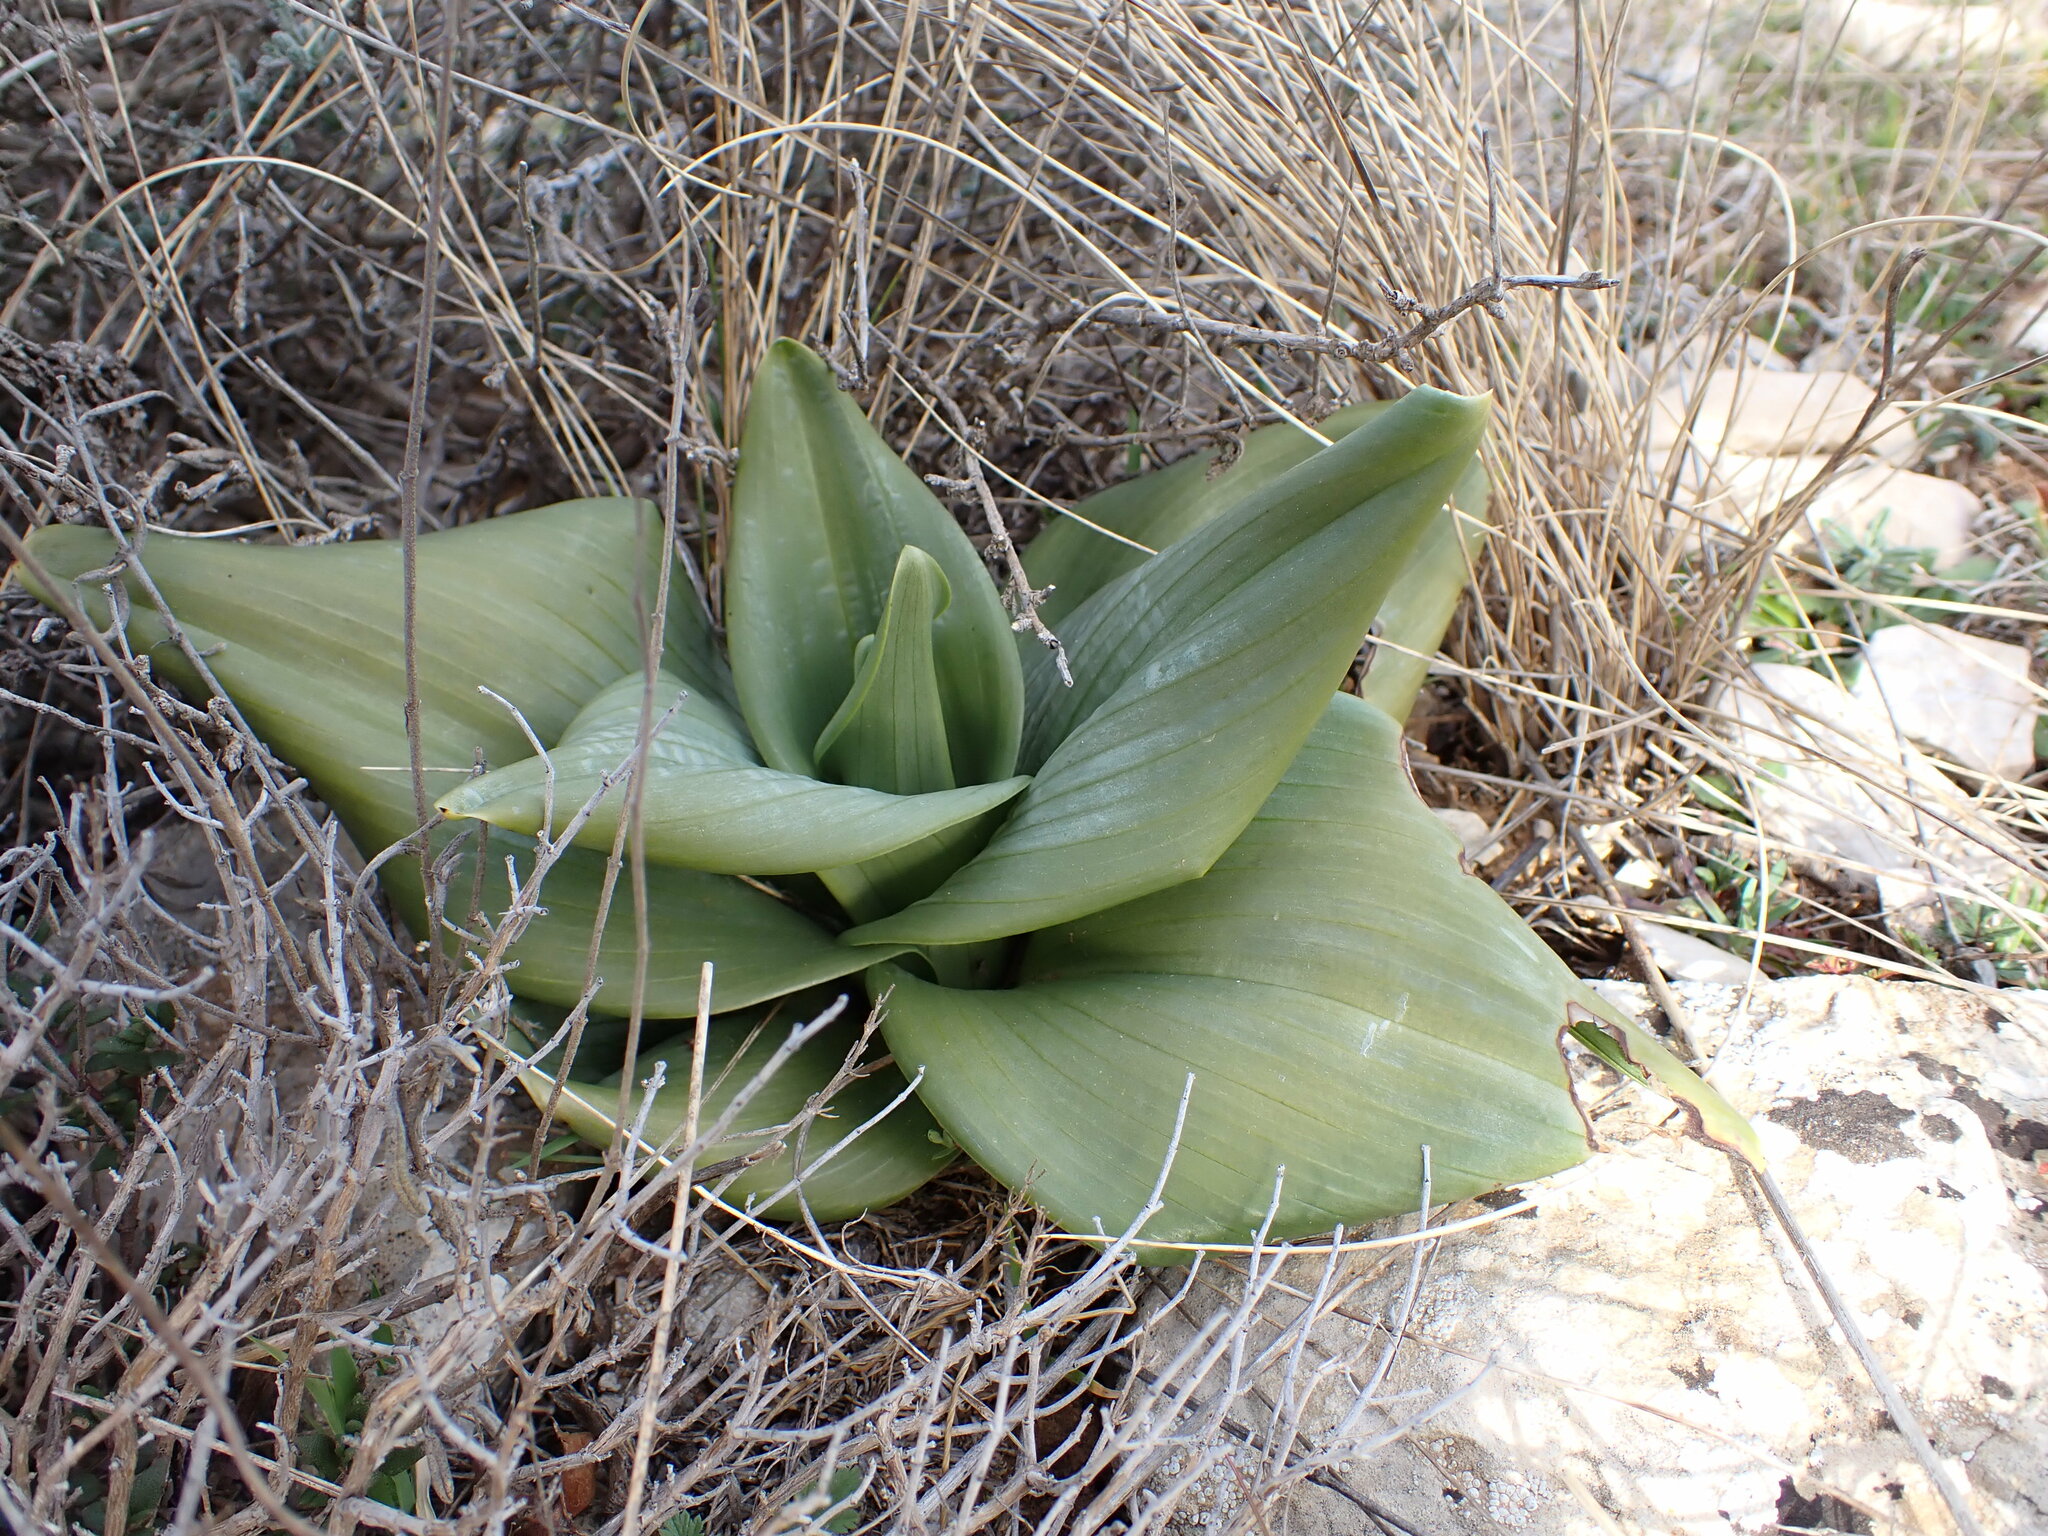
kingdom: Plantae
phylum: Tracheophyta
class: Liliopsida
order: Asparagales
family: Orchidaceae
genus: Himantoglossum
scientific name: Himantoglossum hircinum
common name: Lizard orchid
